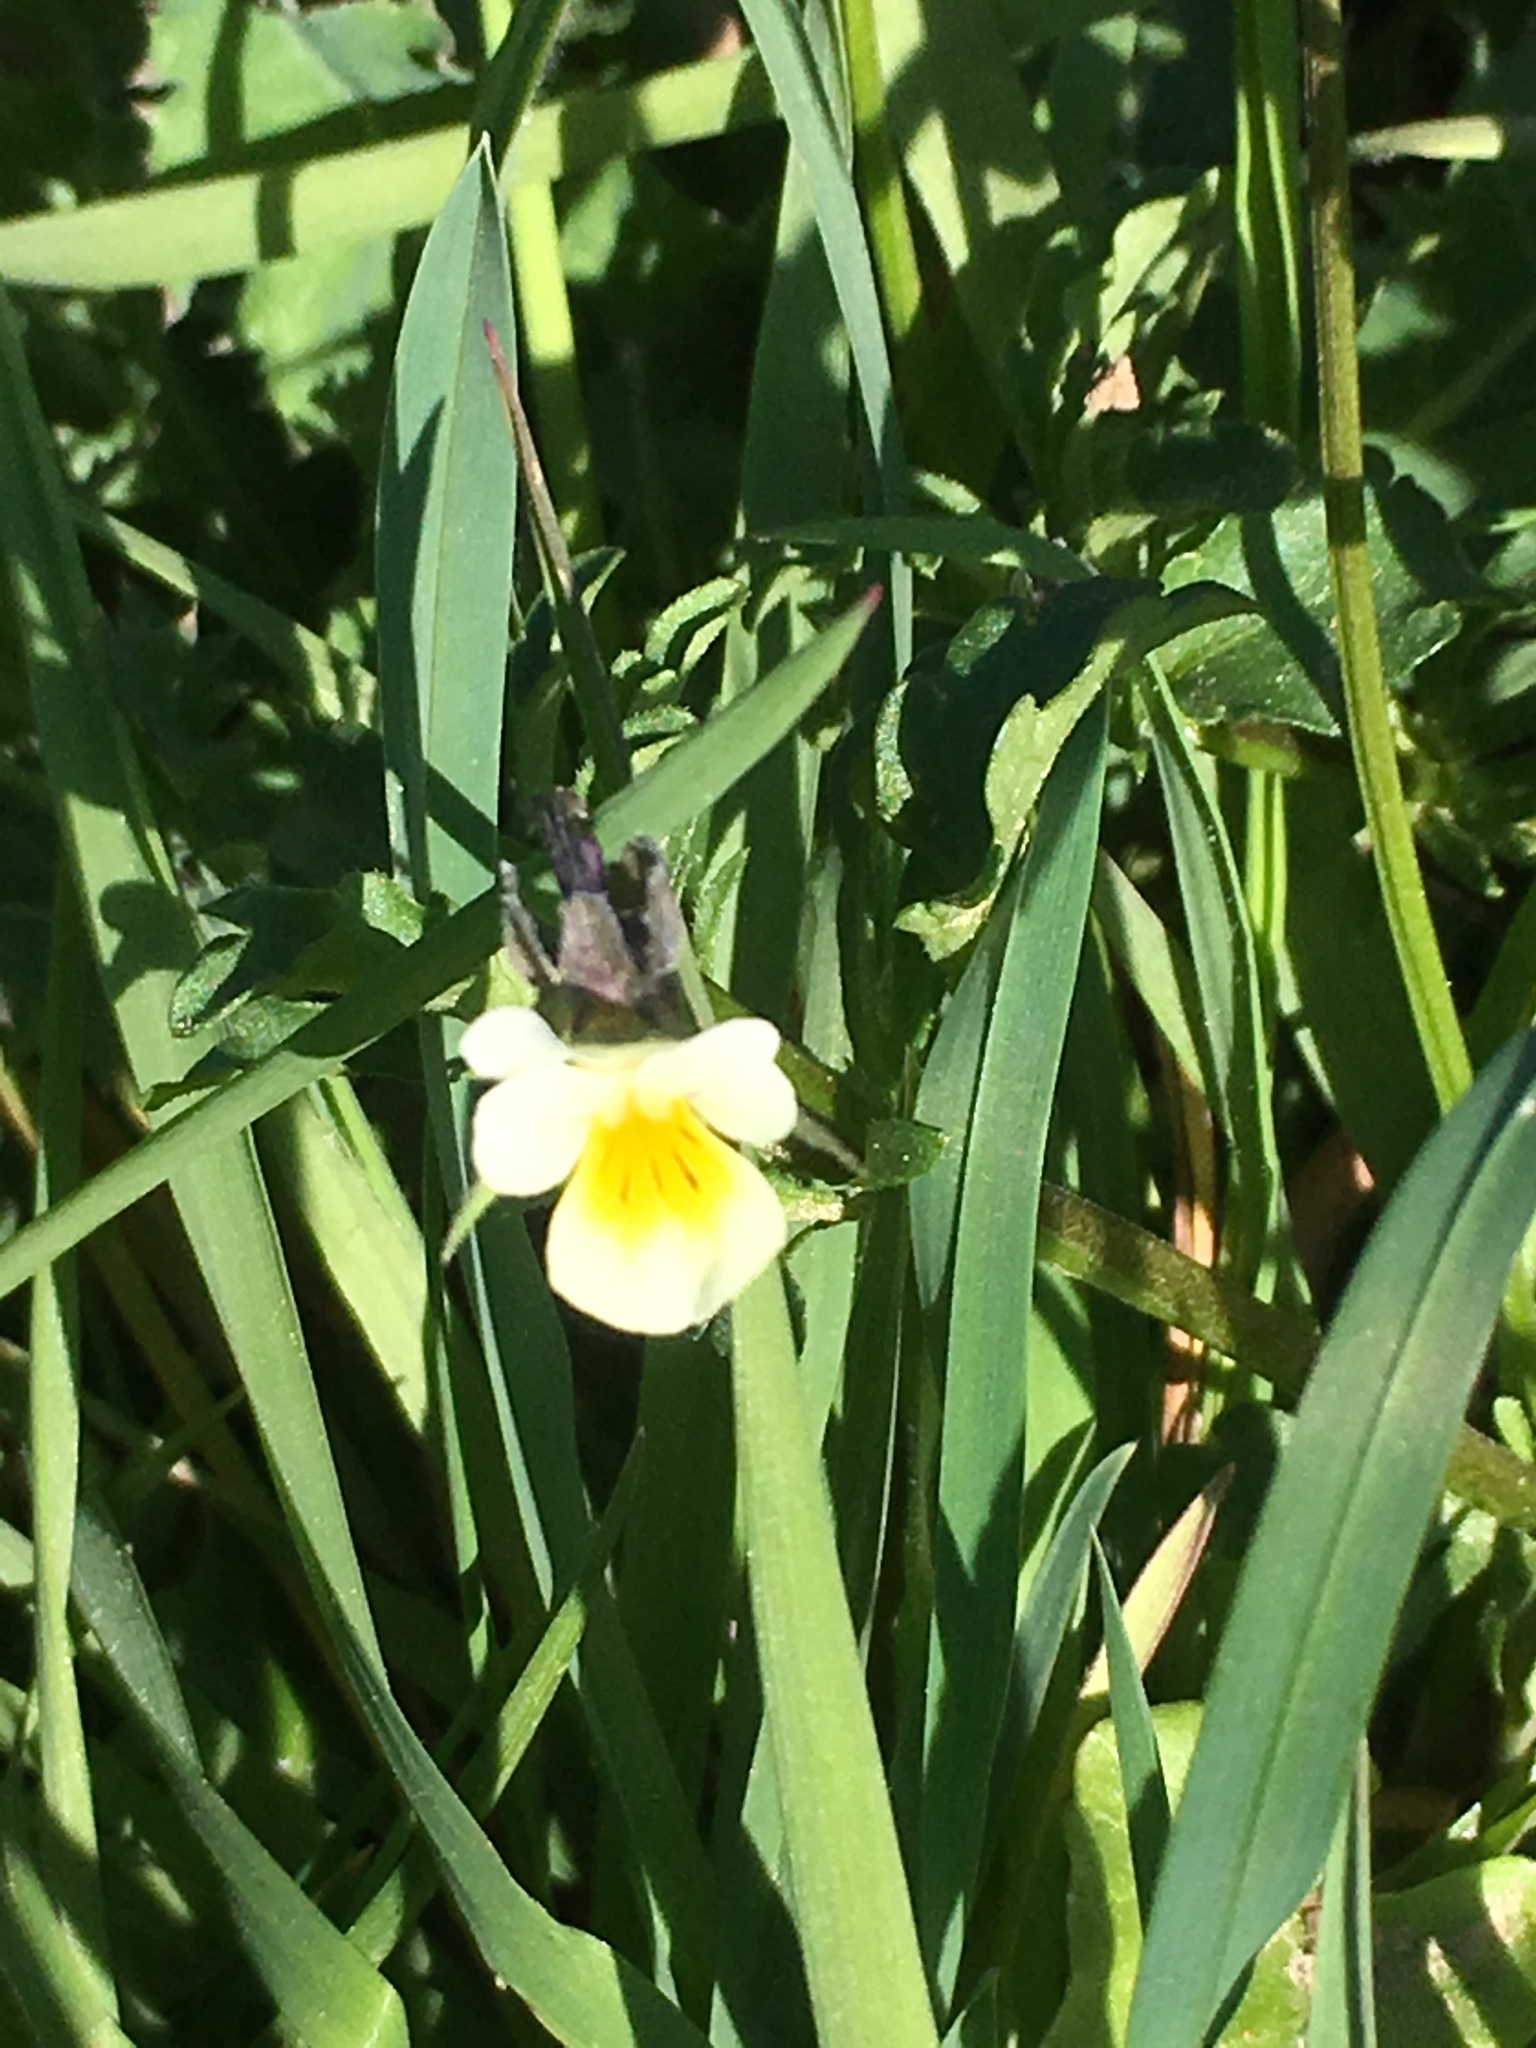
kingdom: Plantae
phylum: Tracheophyta
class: Magnoliopsida
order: Malpighiales
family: Violaceae
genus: Viola
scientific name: Viola arvensis
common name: Field pansy
